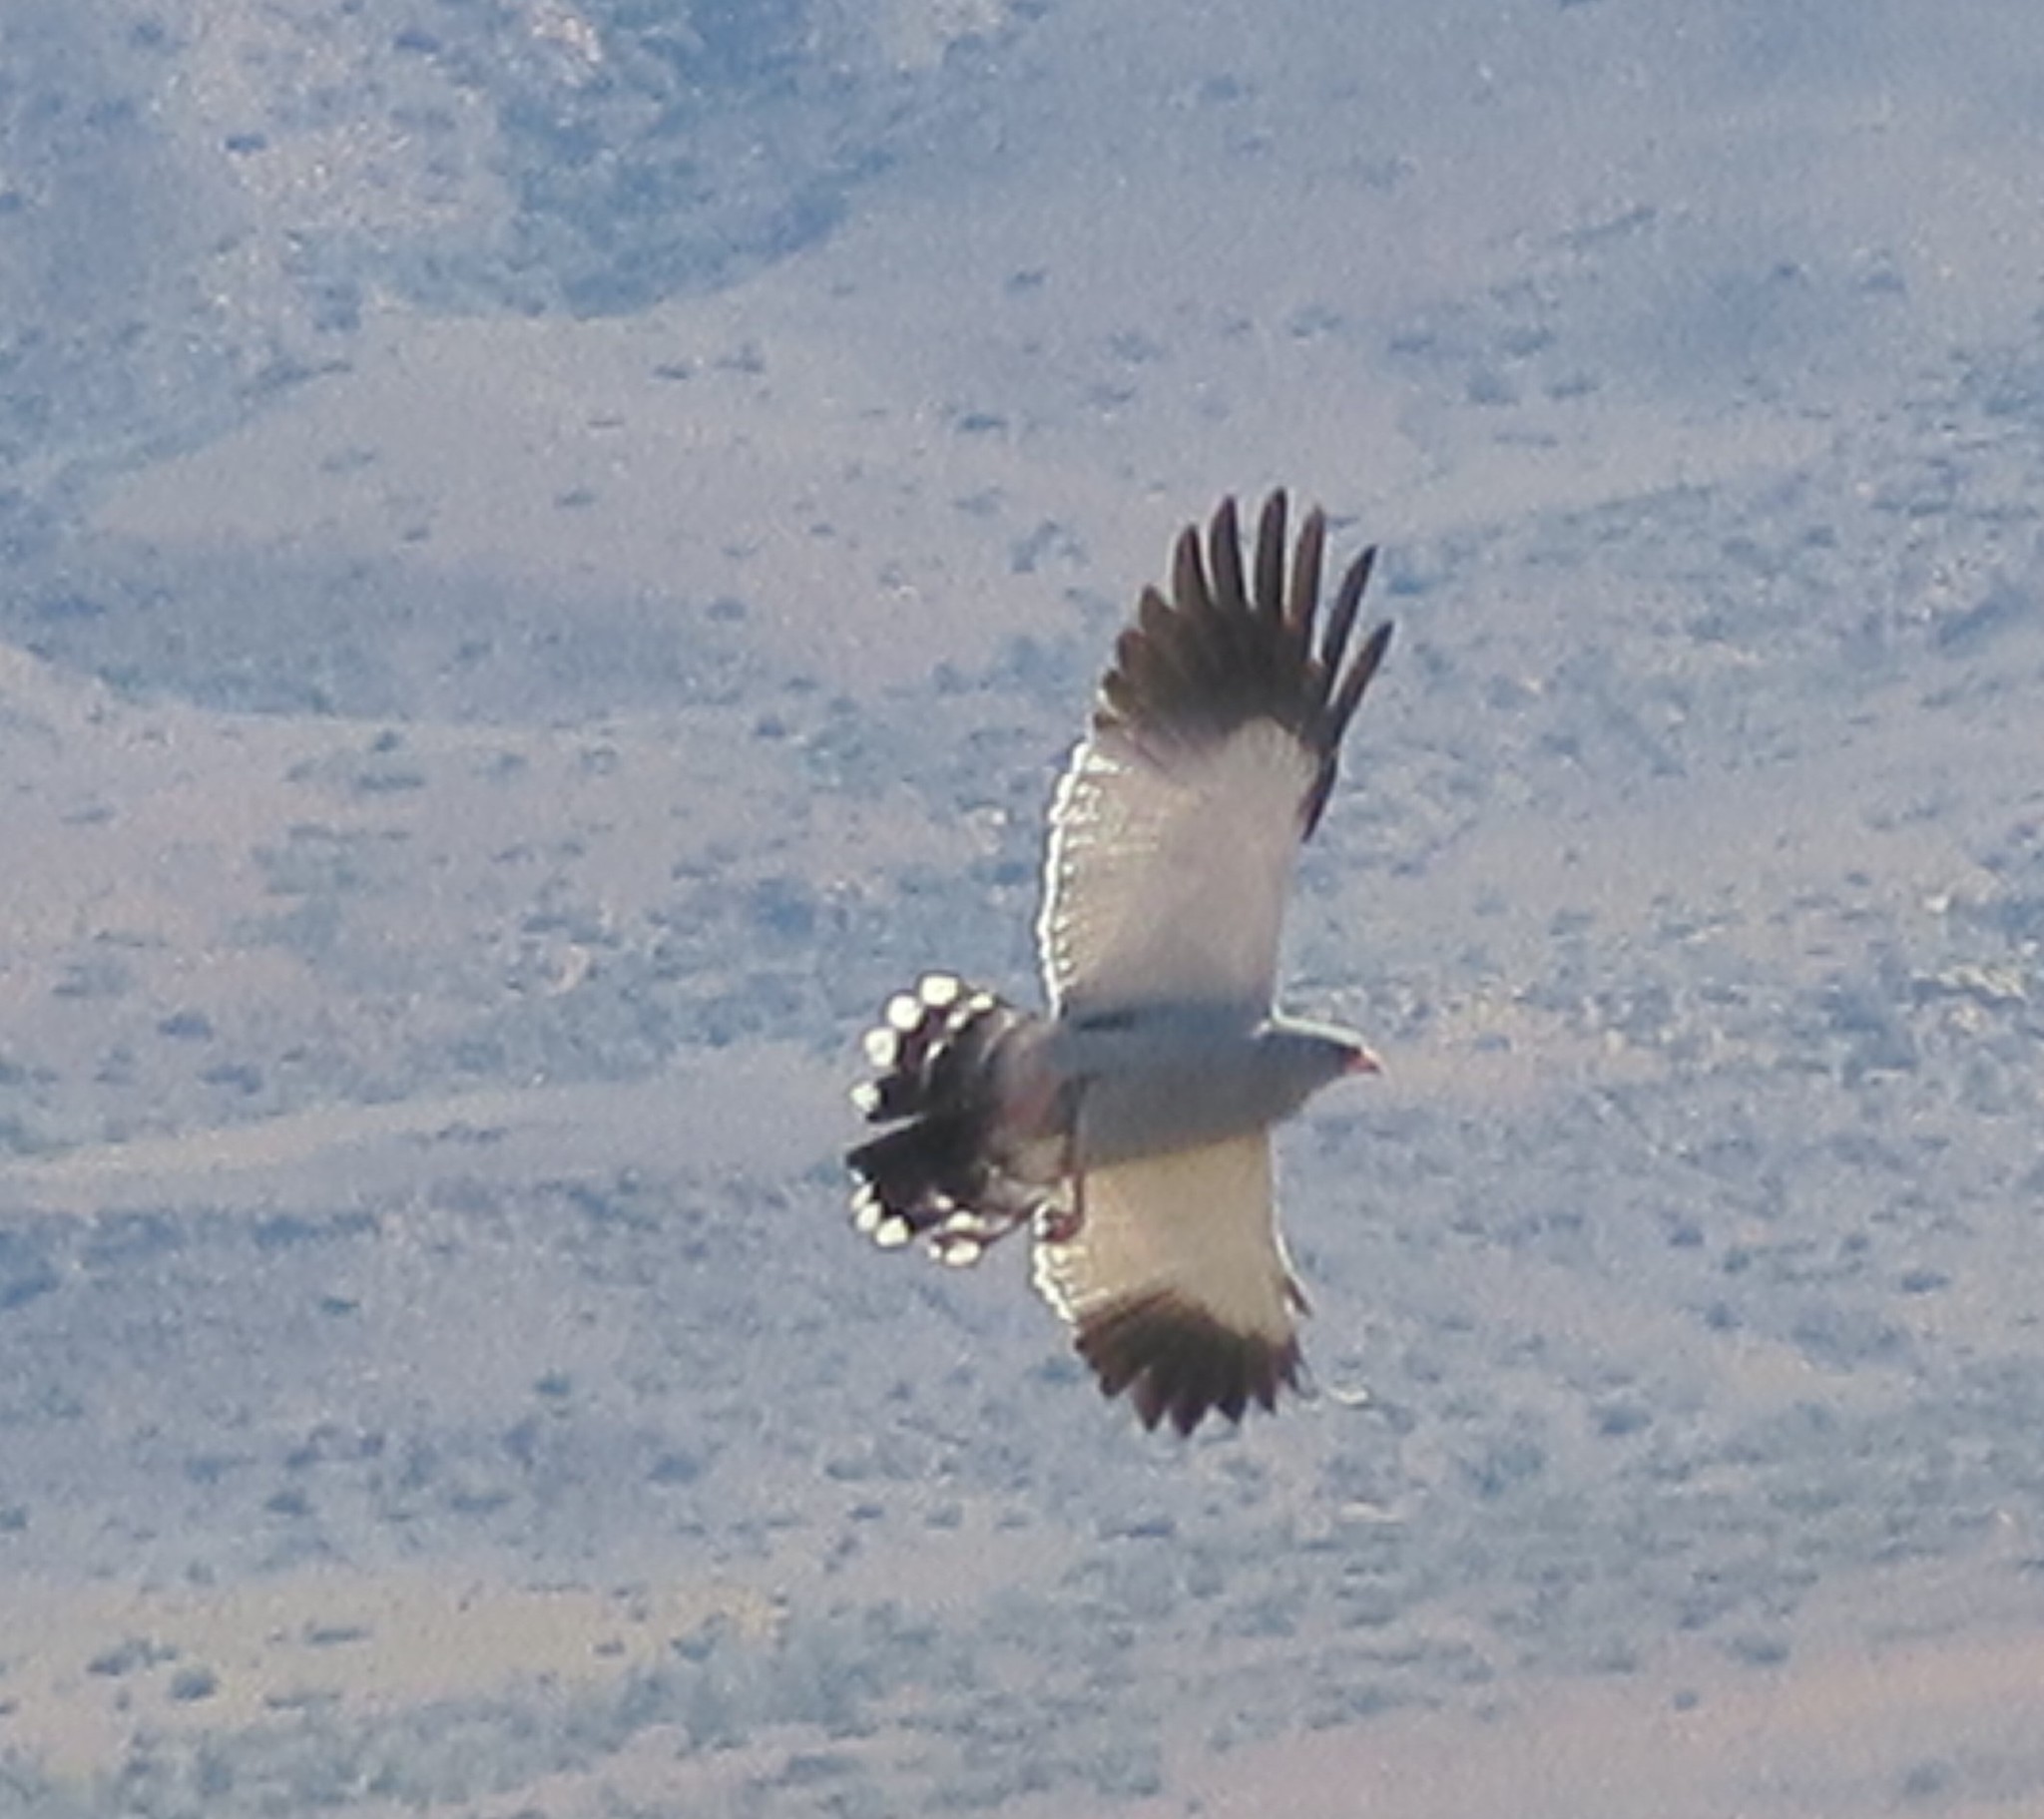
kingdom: Animalia
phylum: Chordata
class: Aves
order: Accipitriformes
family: Accipitridae
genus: Melierax
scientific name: Melierax canorus
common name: Pale chanting-goshawk
